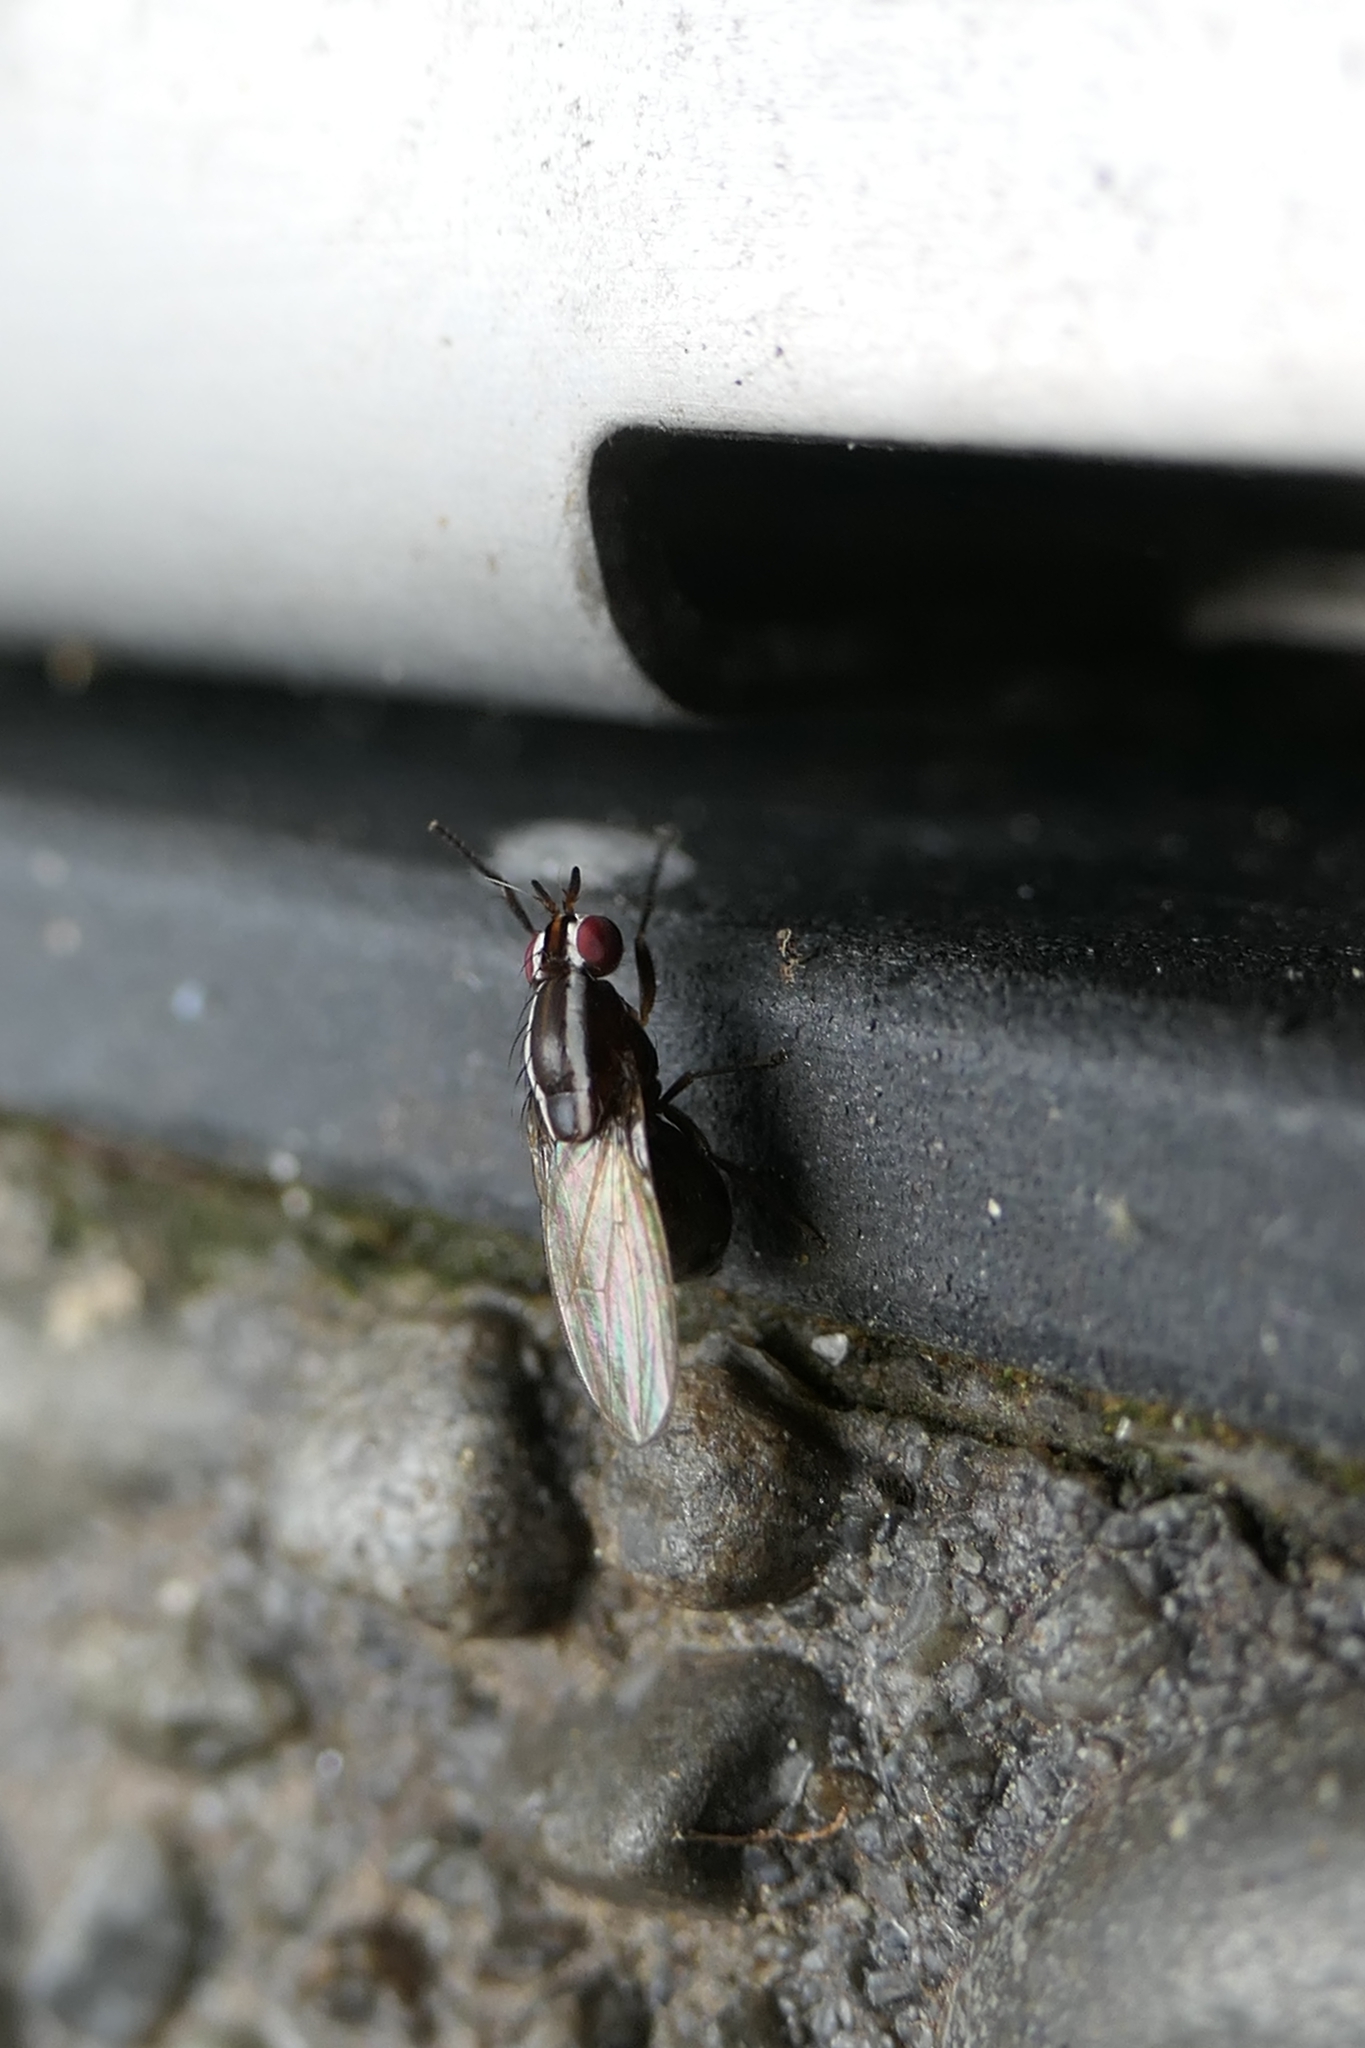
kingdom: Animalia
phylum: Arthropoda
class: Insecta
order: Diptera
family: Lauxaniidae
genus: Poecilohetaerella
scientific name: Poecilohetaerella dubiosa
